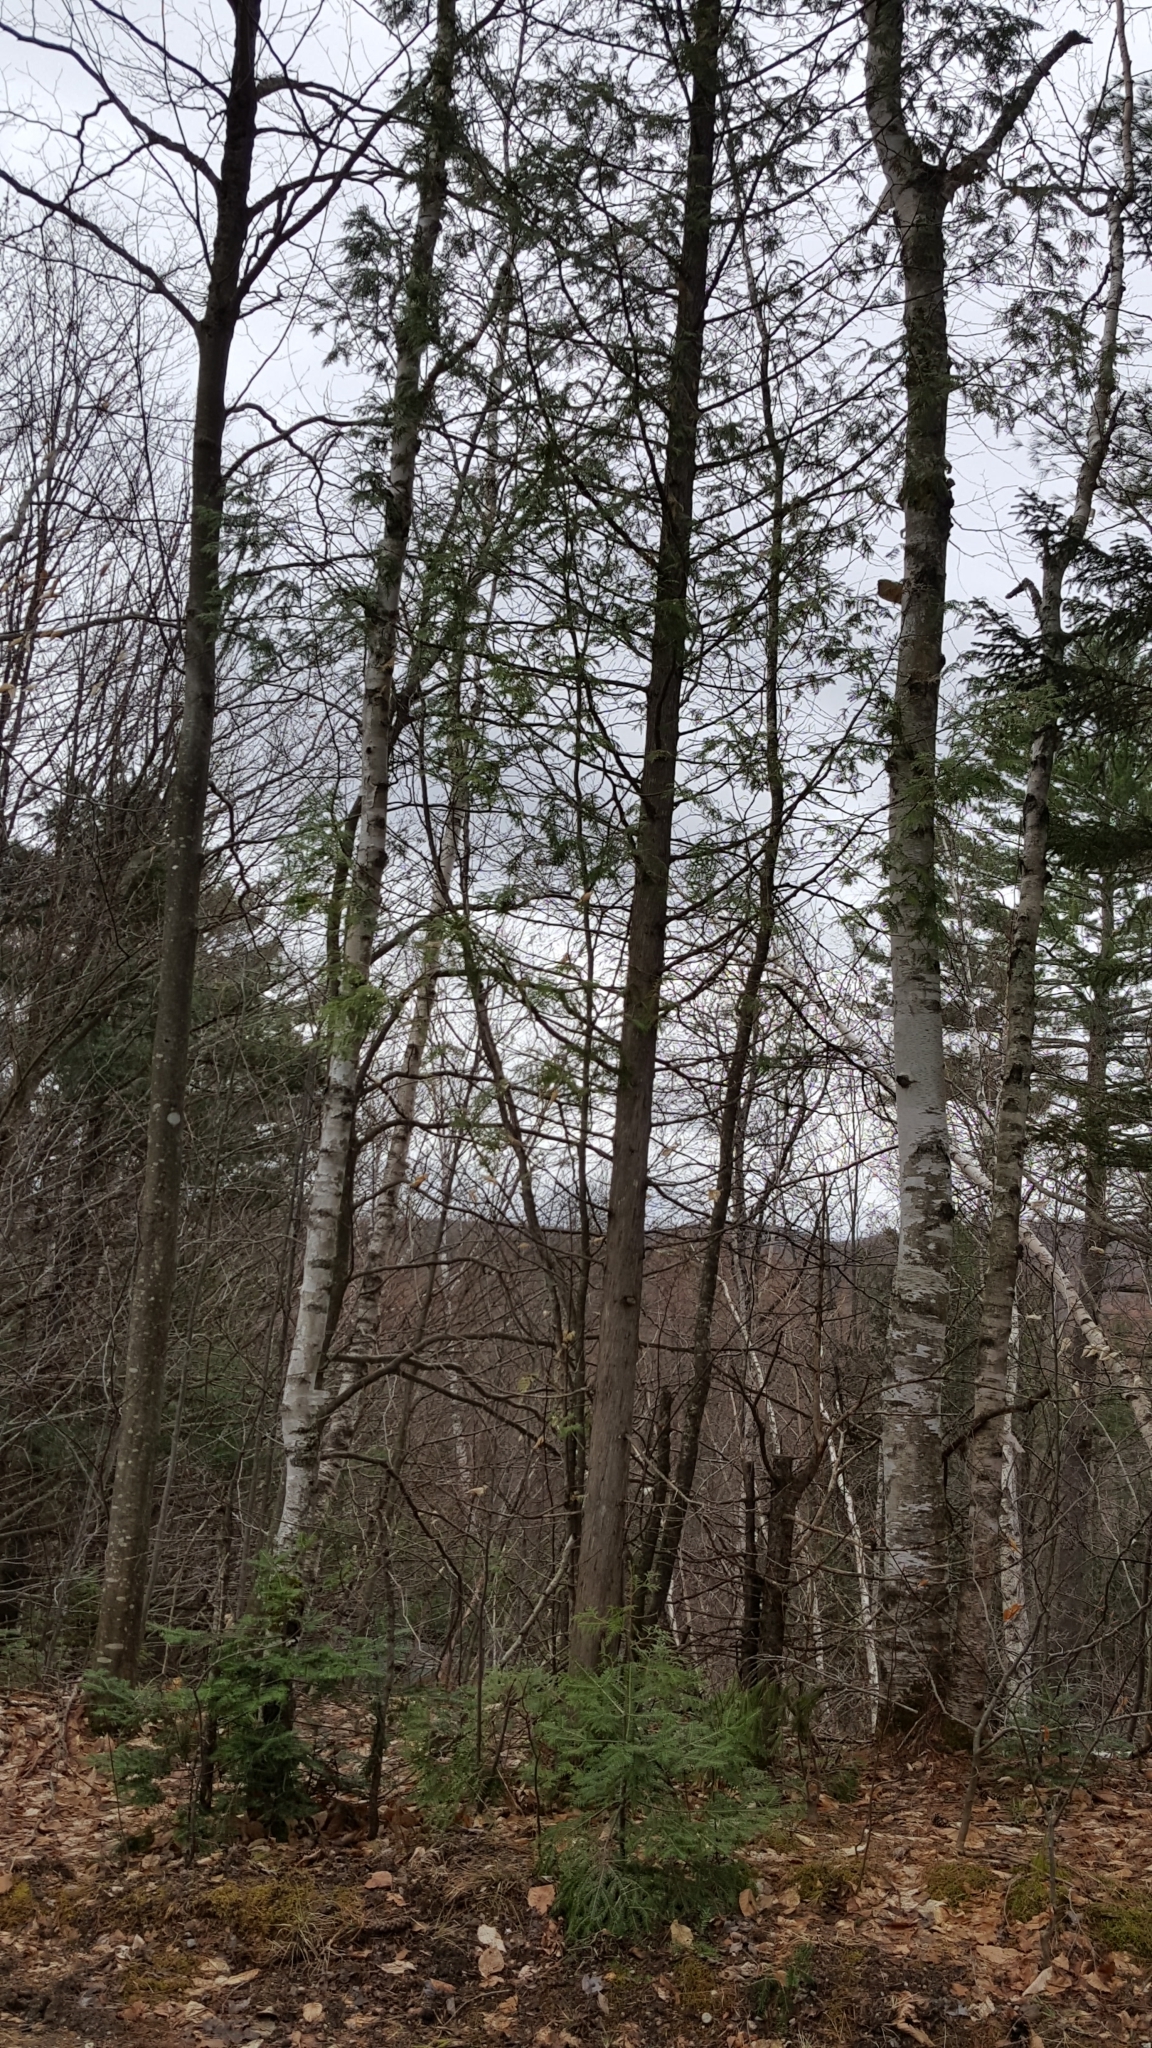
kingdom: Plantae
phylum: Tracheophyta
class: Pinopsida
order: Pinales
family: Cupressaceae
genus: Thuja
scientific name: Thuja occidentalis
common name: Northern white-cedar
